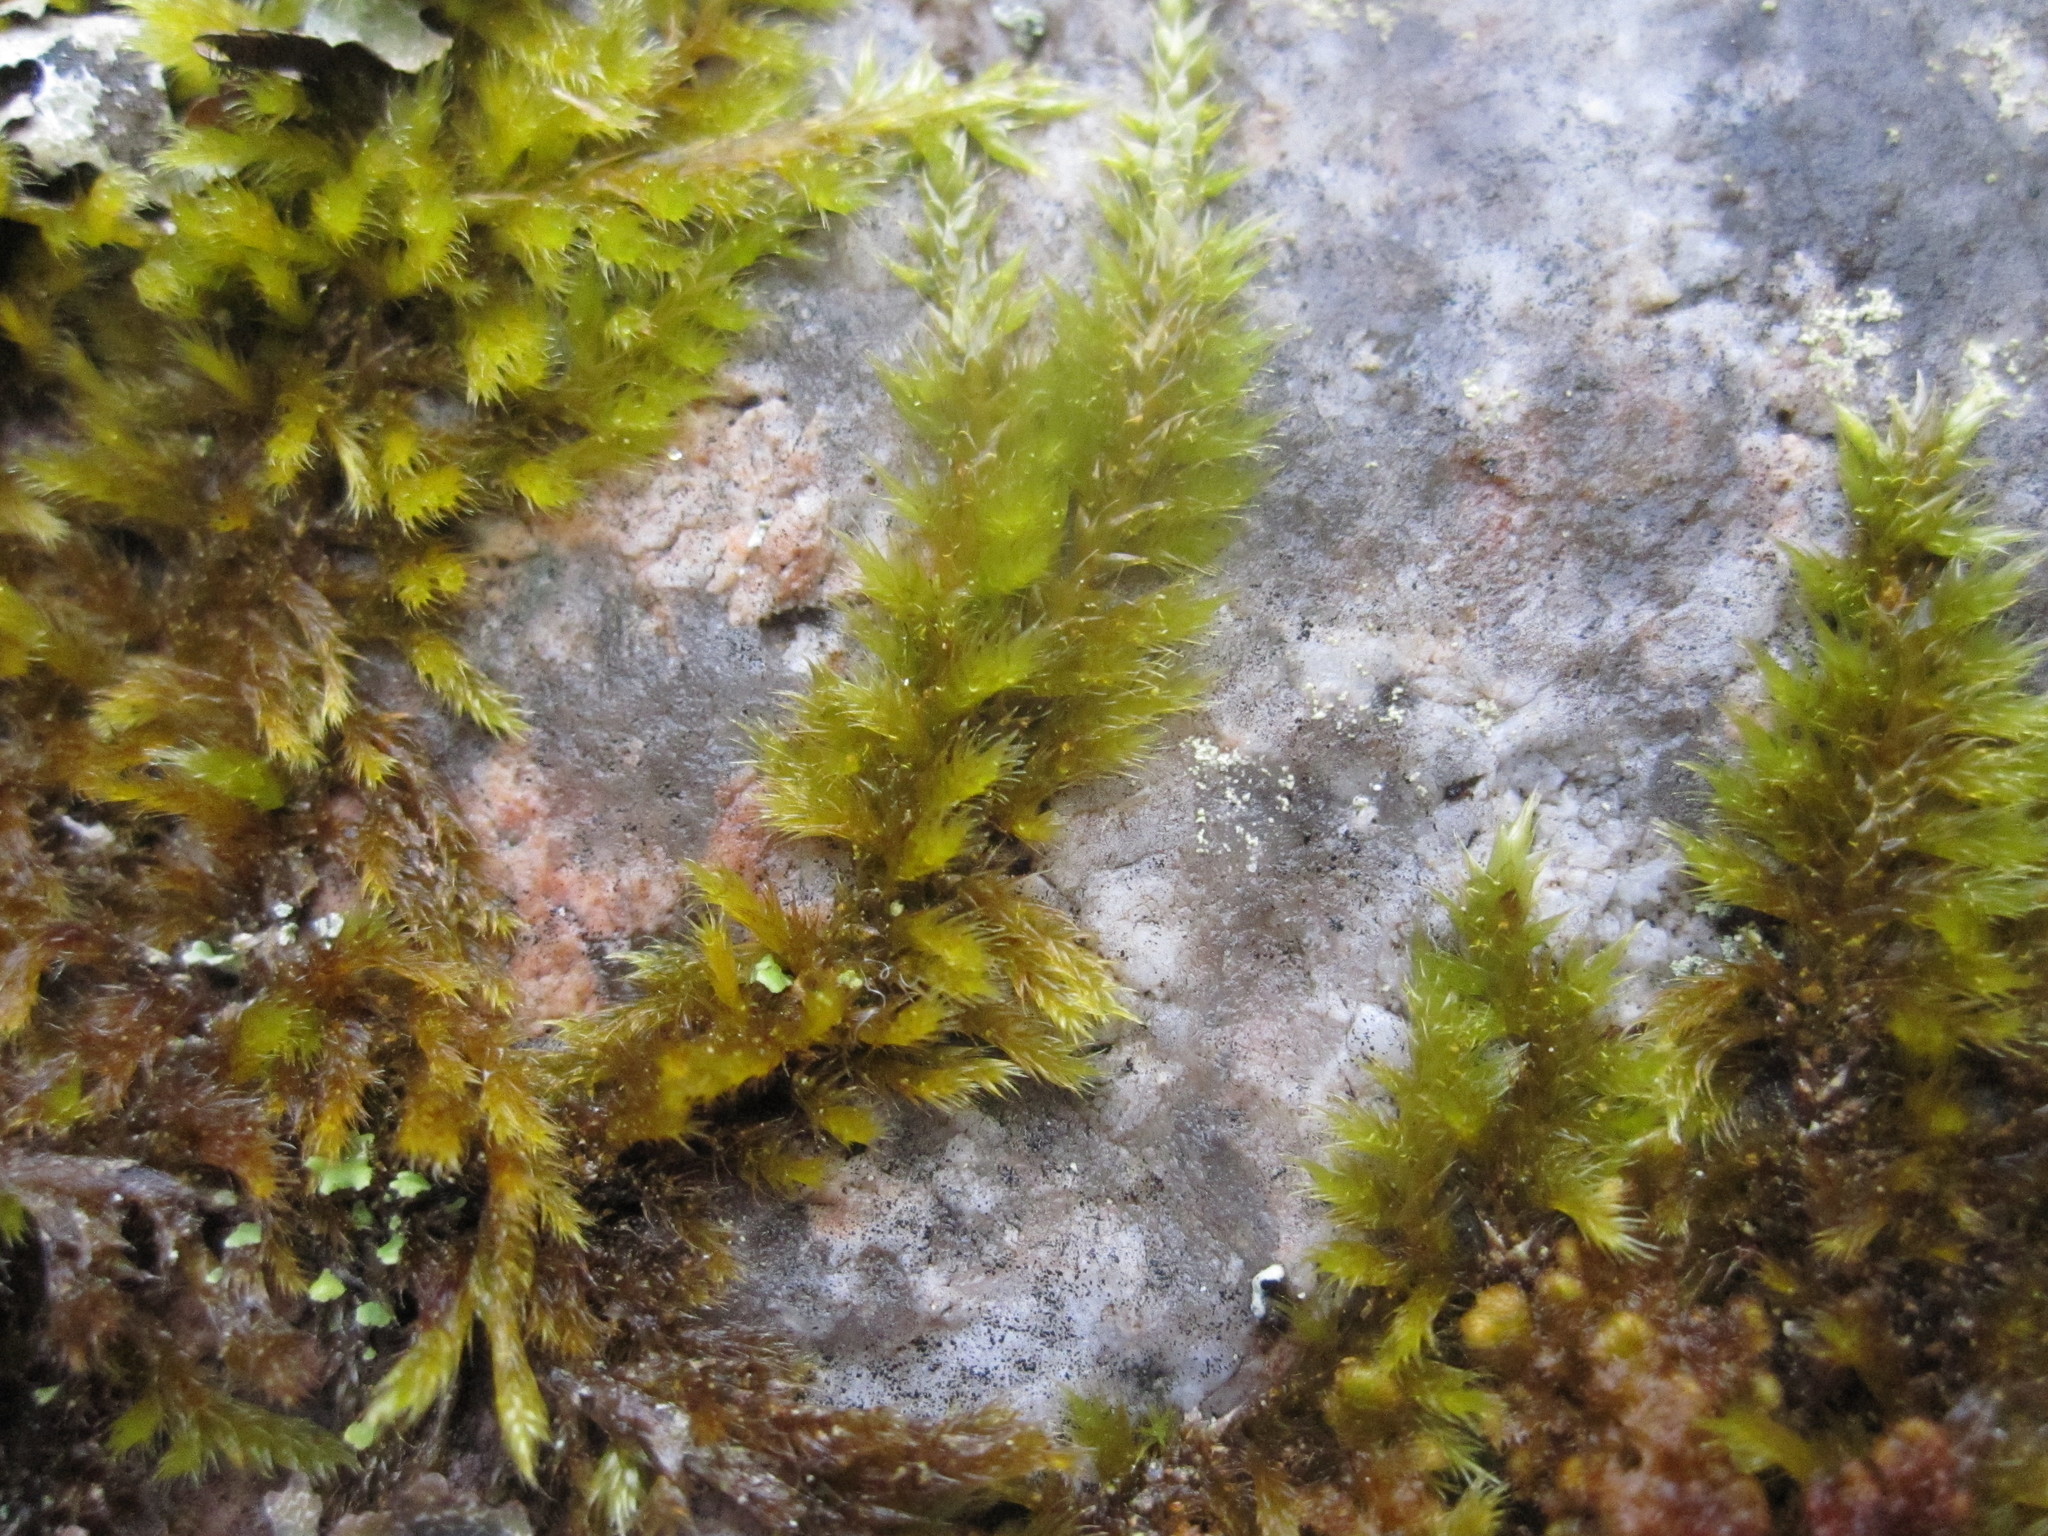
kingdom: Plantae
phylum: Bryophyta
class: Bryopsida
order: Hypnales
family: Brachytheciaceae
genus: Homalothecium
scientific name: Homalothecium sericeum
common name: Silky wall feather-moss
